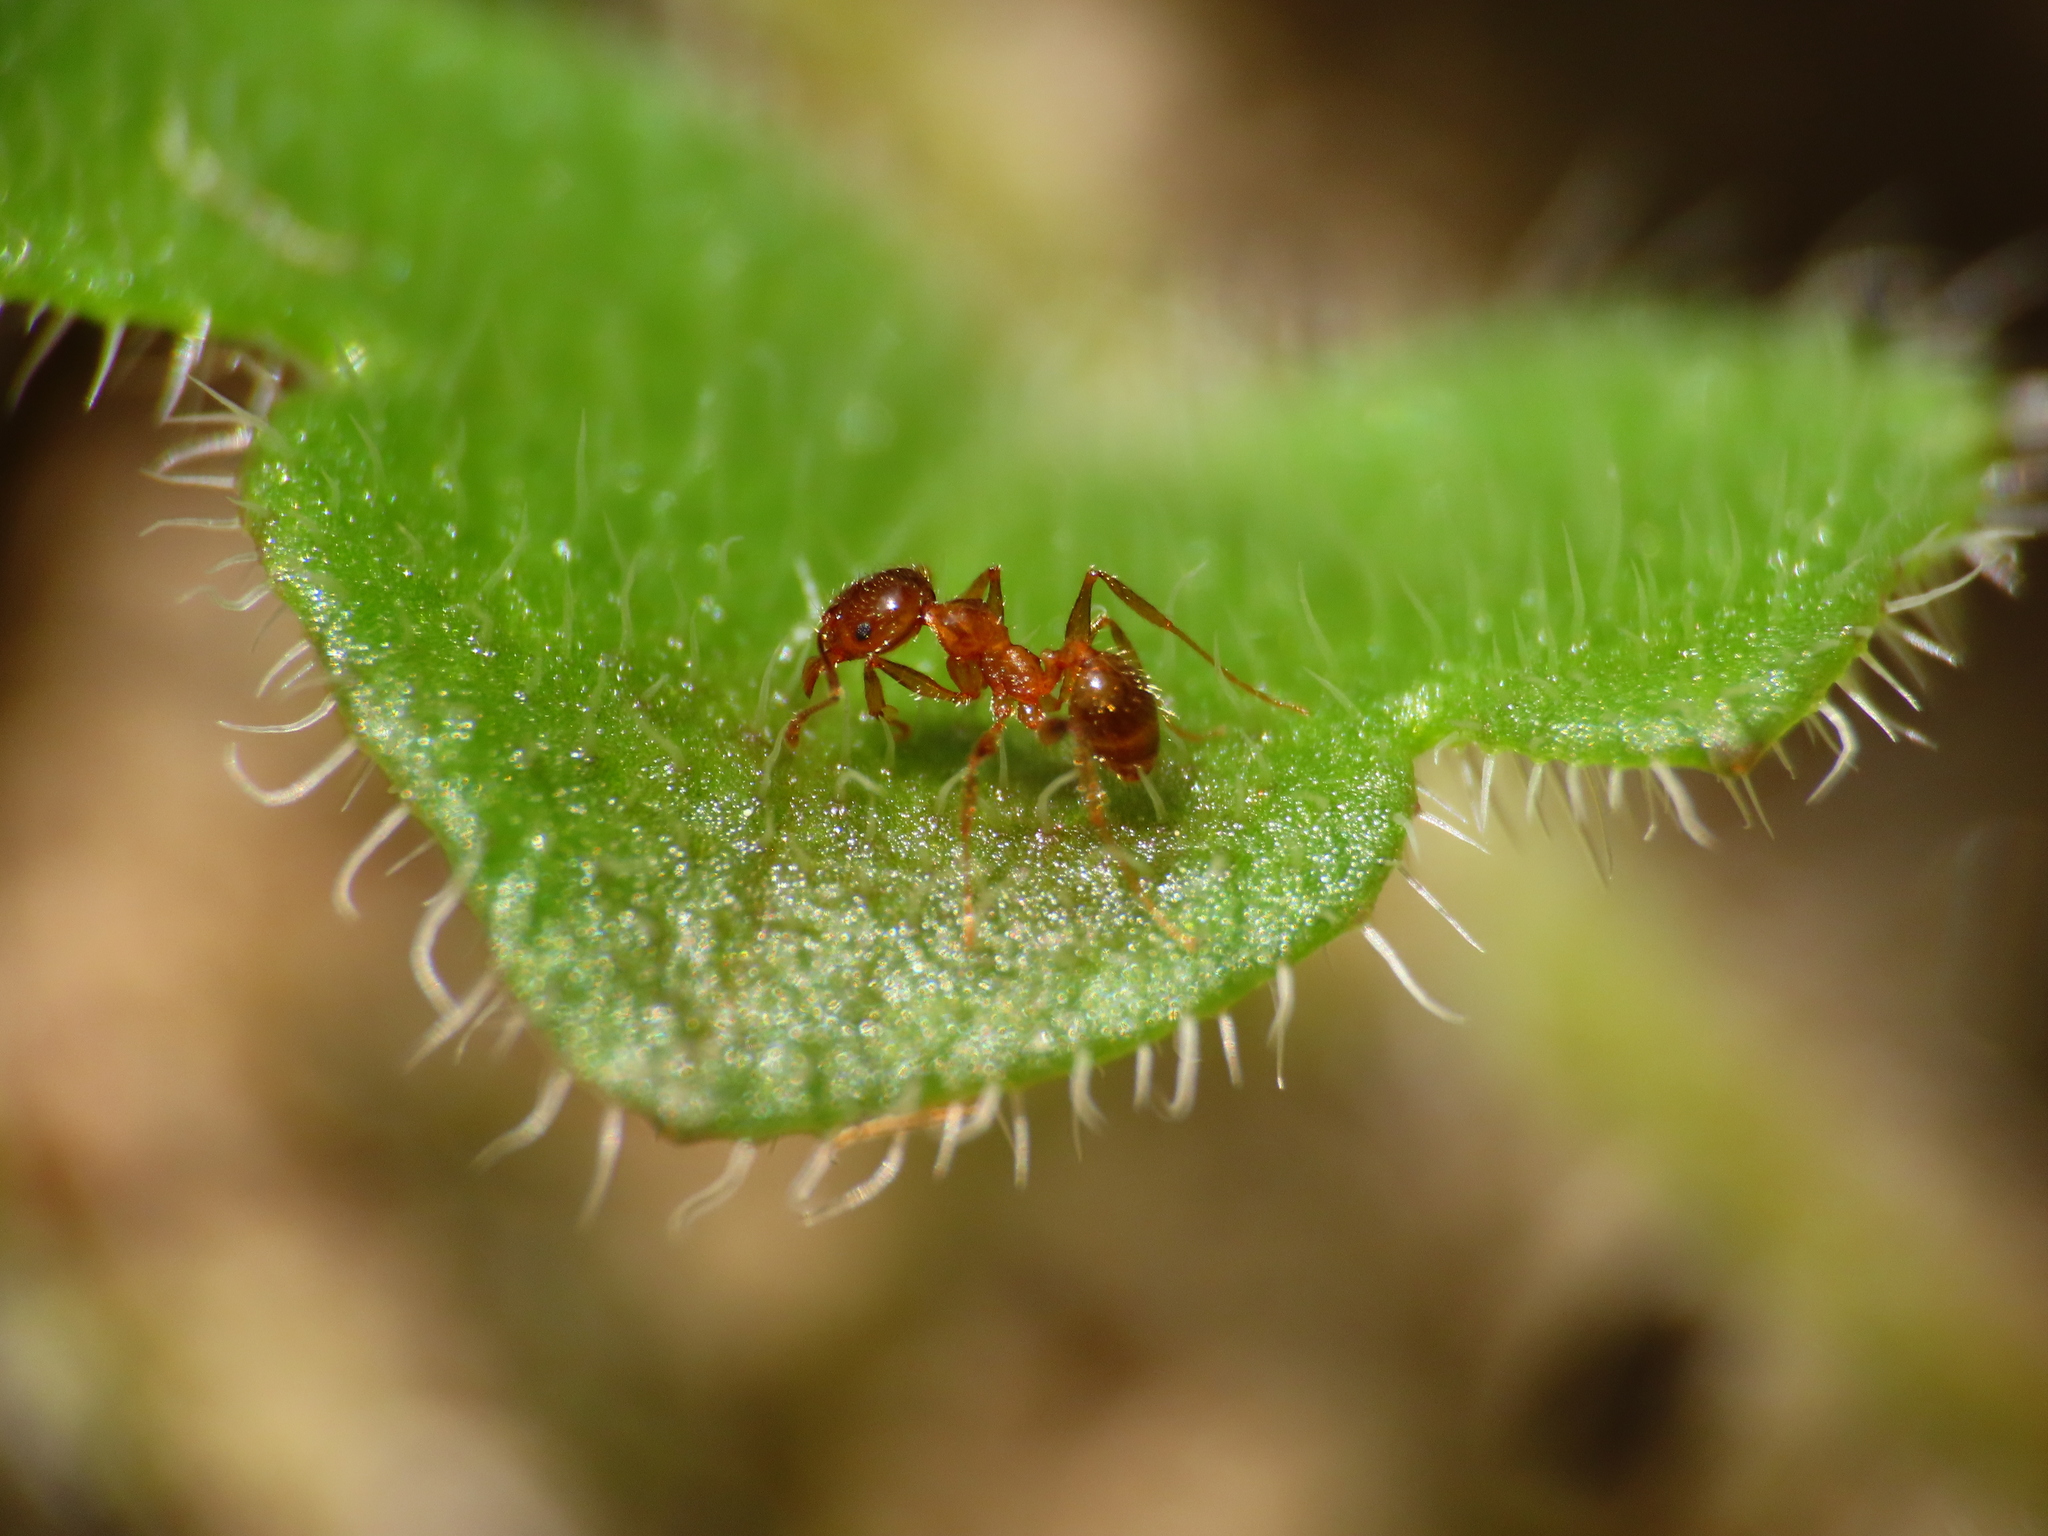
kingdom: Animalia
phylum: Arthropoda
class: Insecta
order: Hymenoptera
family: Formicidae
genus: Pheidole
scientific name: Pheidole pallidula
